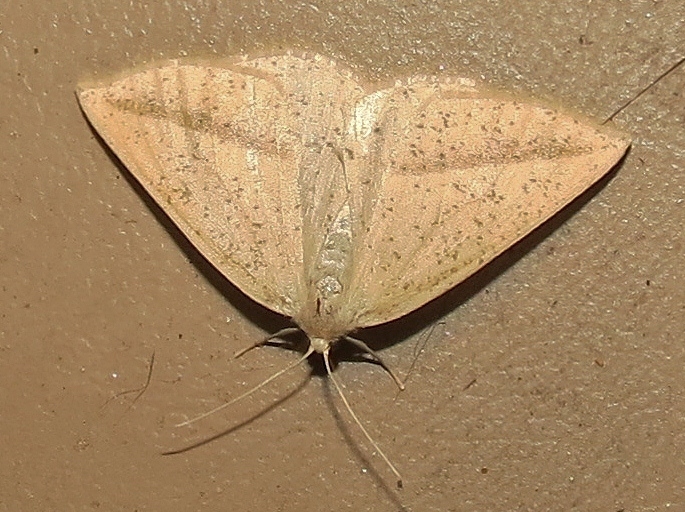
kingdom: Animalia
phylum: Arthropoda
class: Insecta
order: Lepidoptera
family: Geometridae
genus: Lychnosea
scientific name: Lychnosea intermicata
